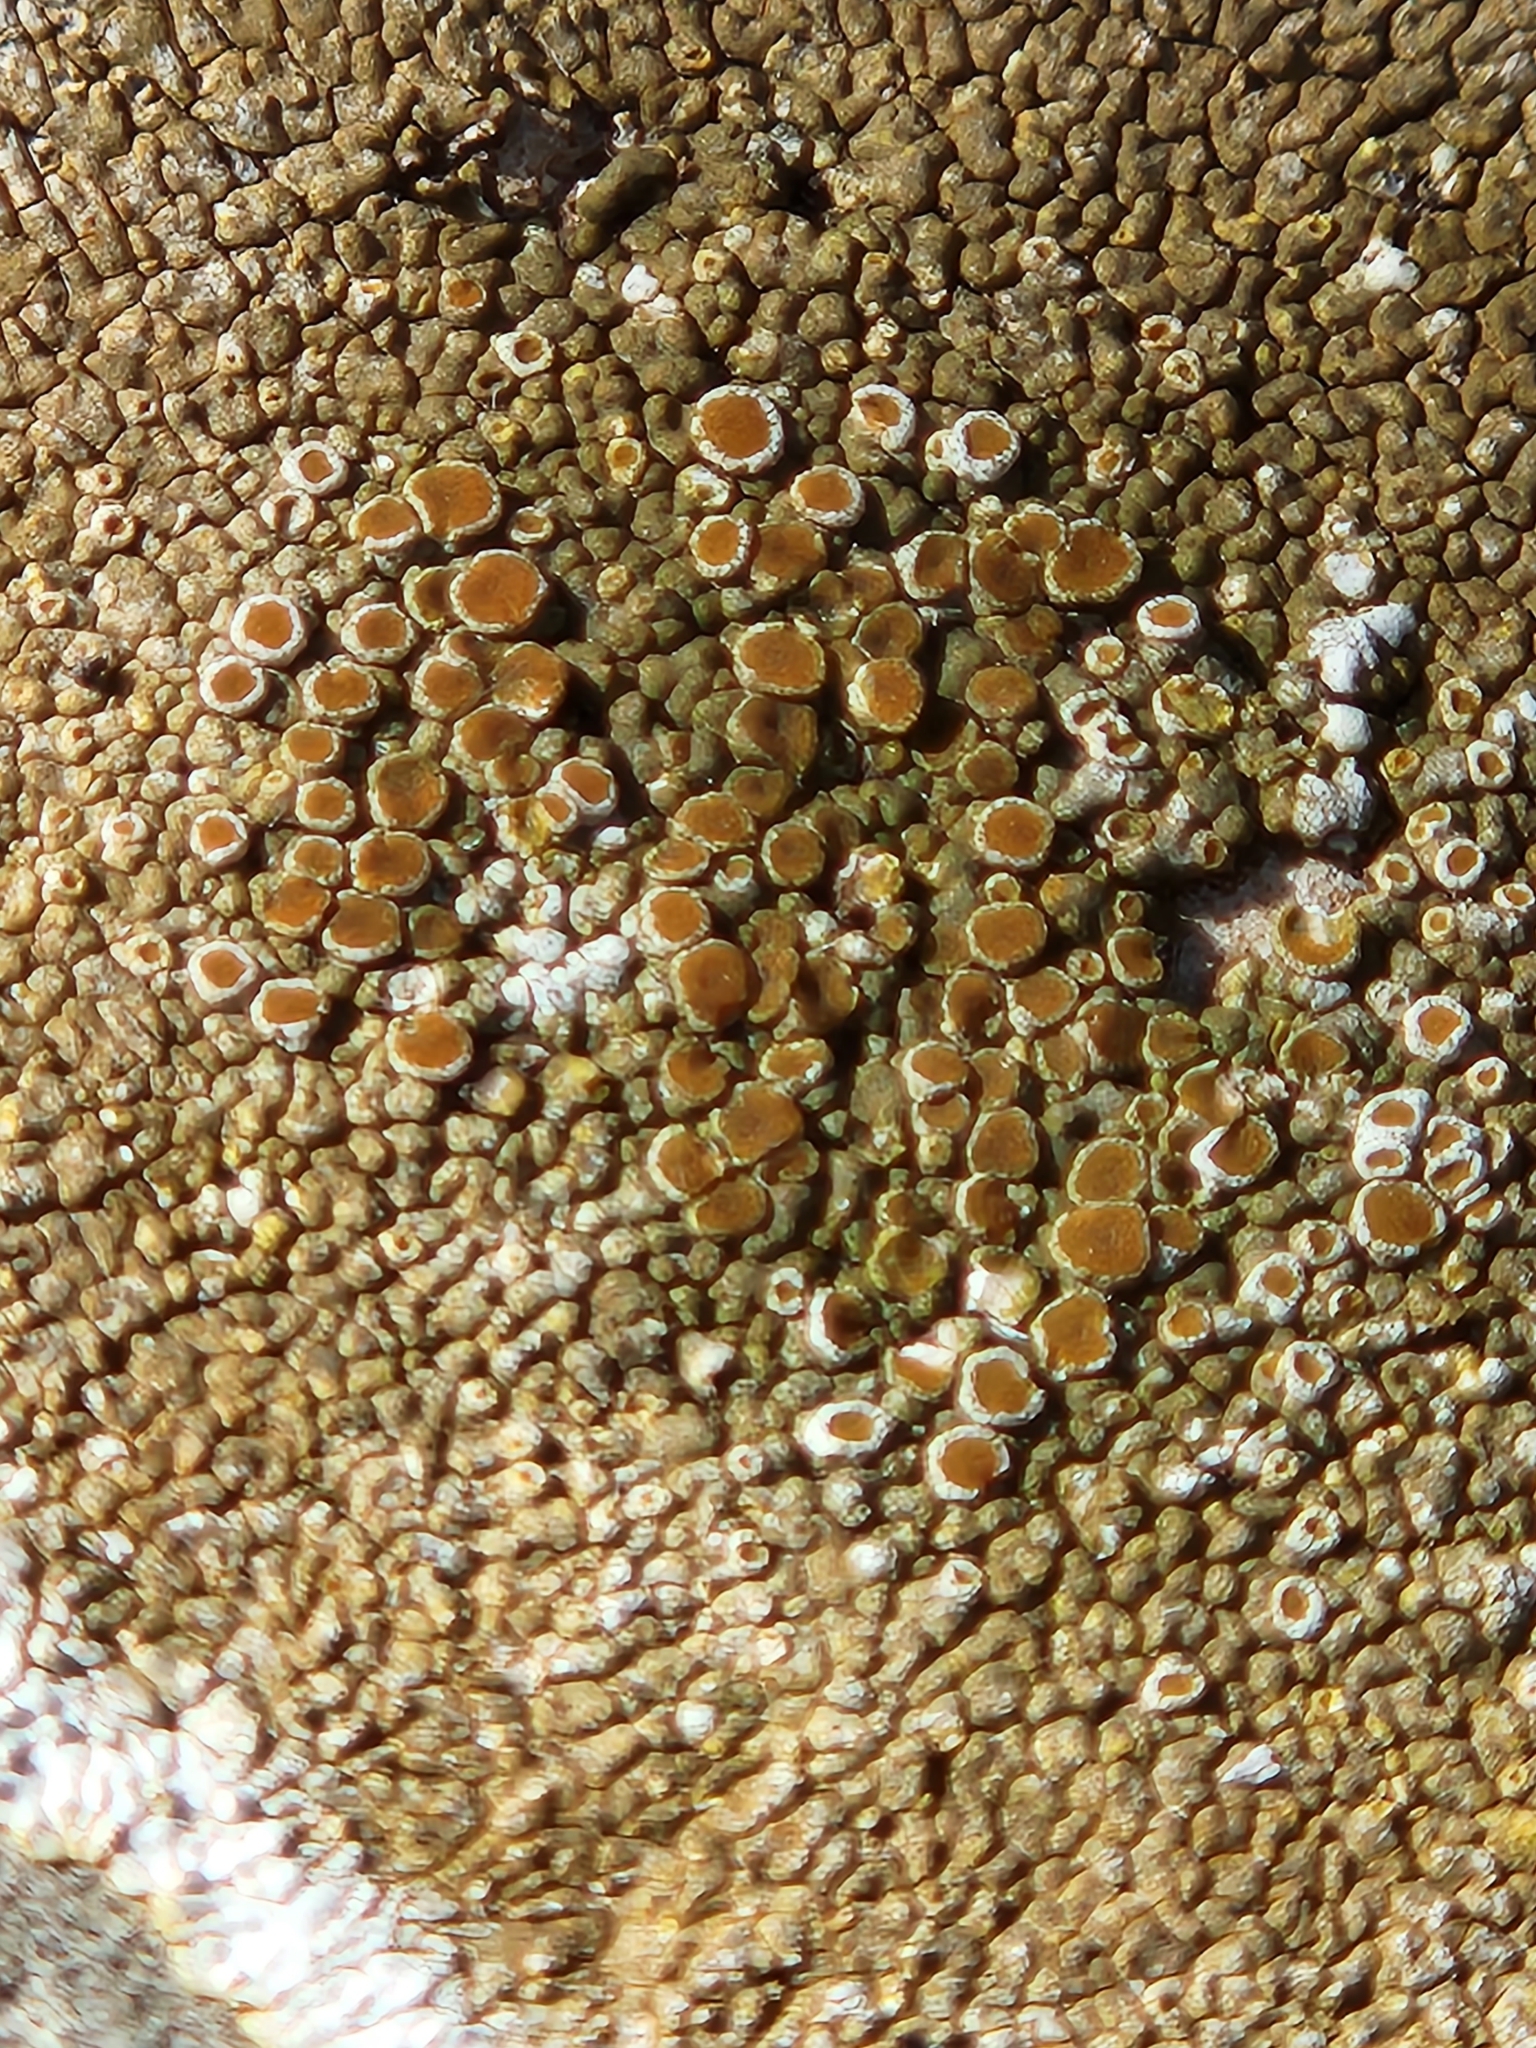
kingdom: Fungi
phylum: Ascomycota
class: Lecanoromycetes
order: Teloschistales
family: Teloschistaceae
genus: Squamulea
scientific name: Squamulea galactophylla
